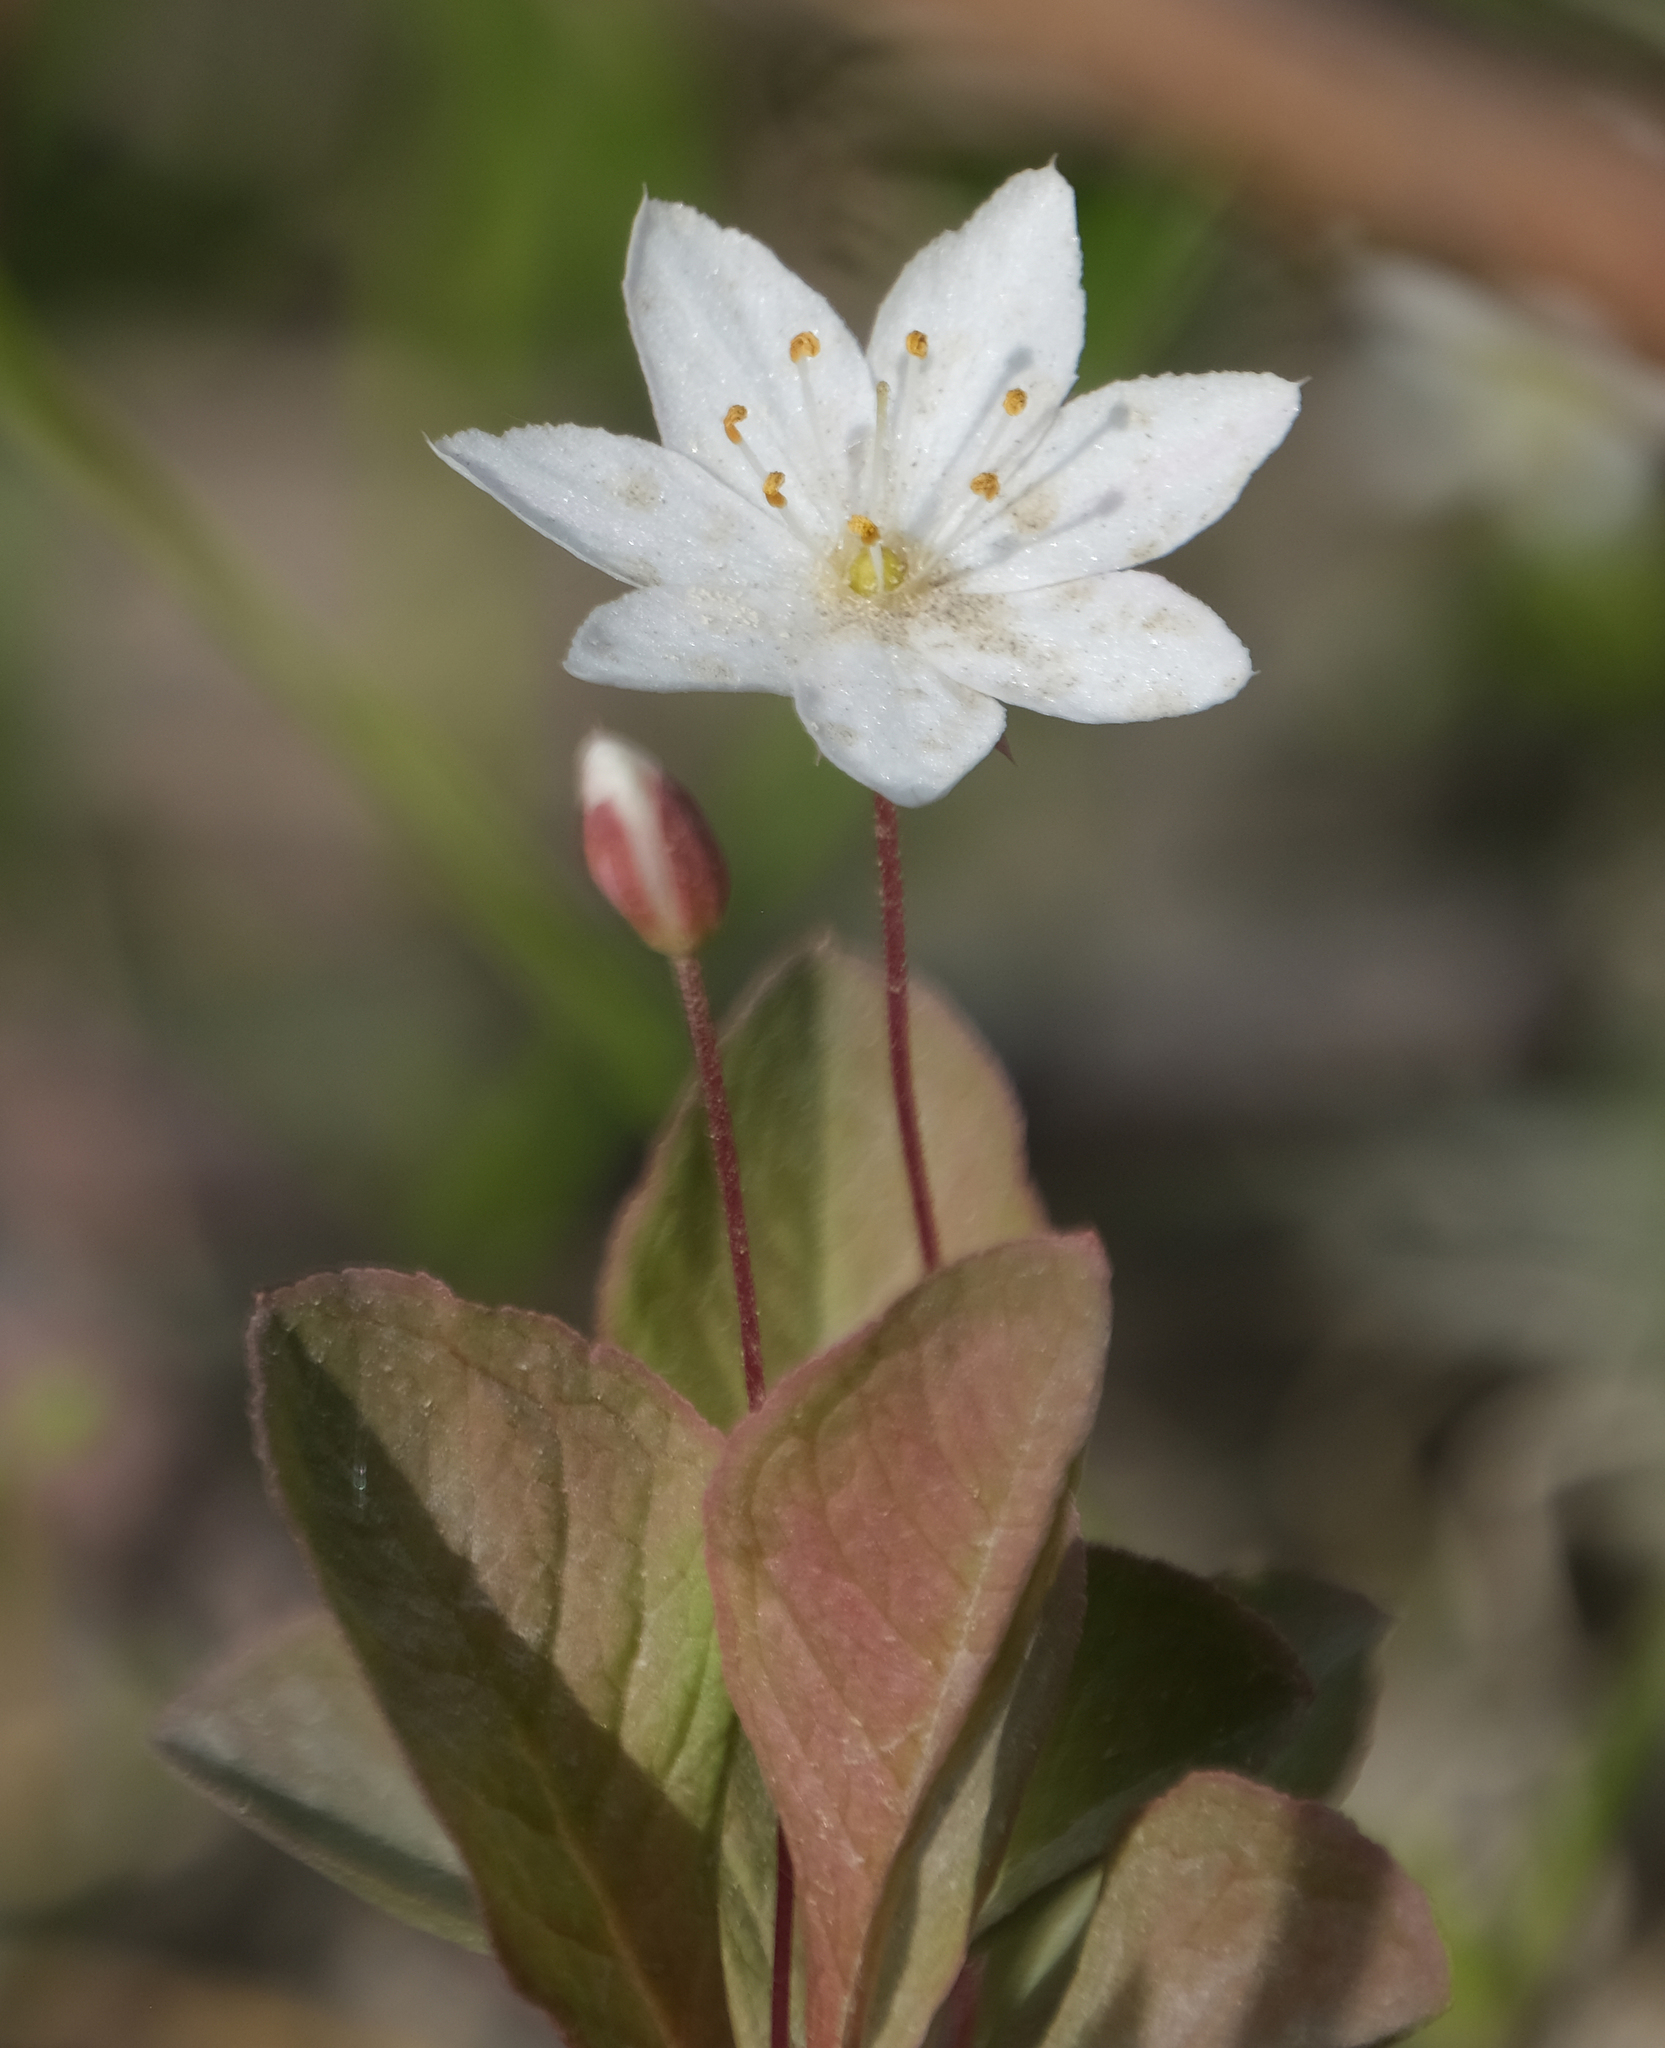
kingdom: Plantae
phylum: Tracheophyta
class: Magnoliopsida
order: Ericales
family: Primulaceae
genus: Lysimachia
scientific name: Lysimachia europaea
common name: Arctic starflower
